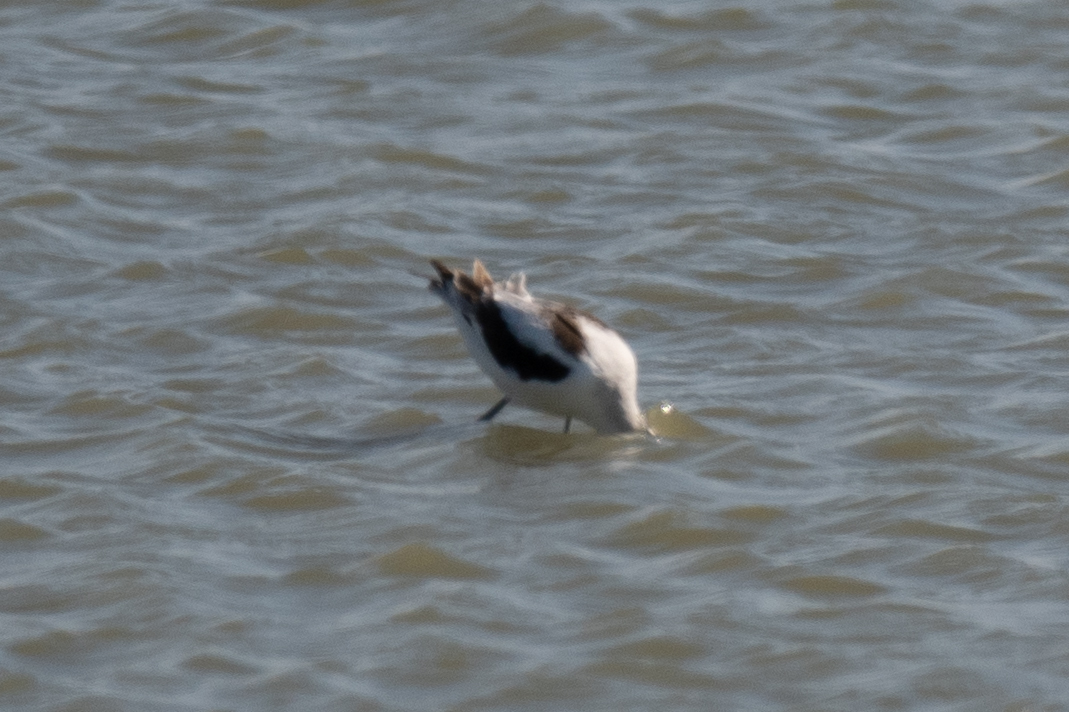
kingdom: Animalia
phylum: Chordata
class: Aves
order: Charadriiformes
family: Recurvirostridae
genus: Recurvirostra
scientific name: Recurvirostra americana
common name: American avocet
